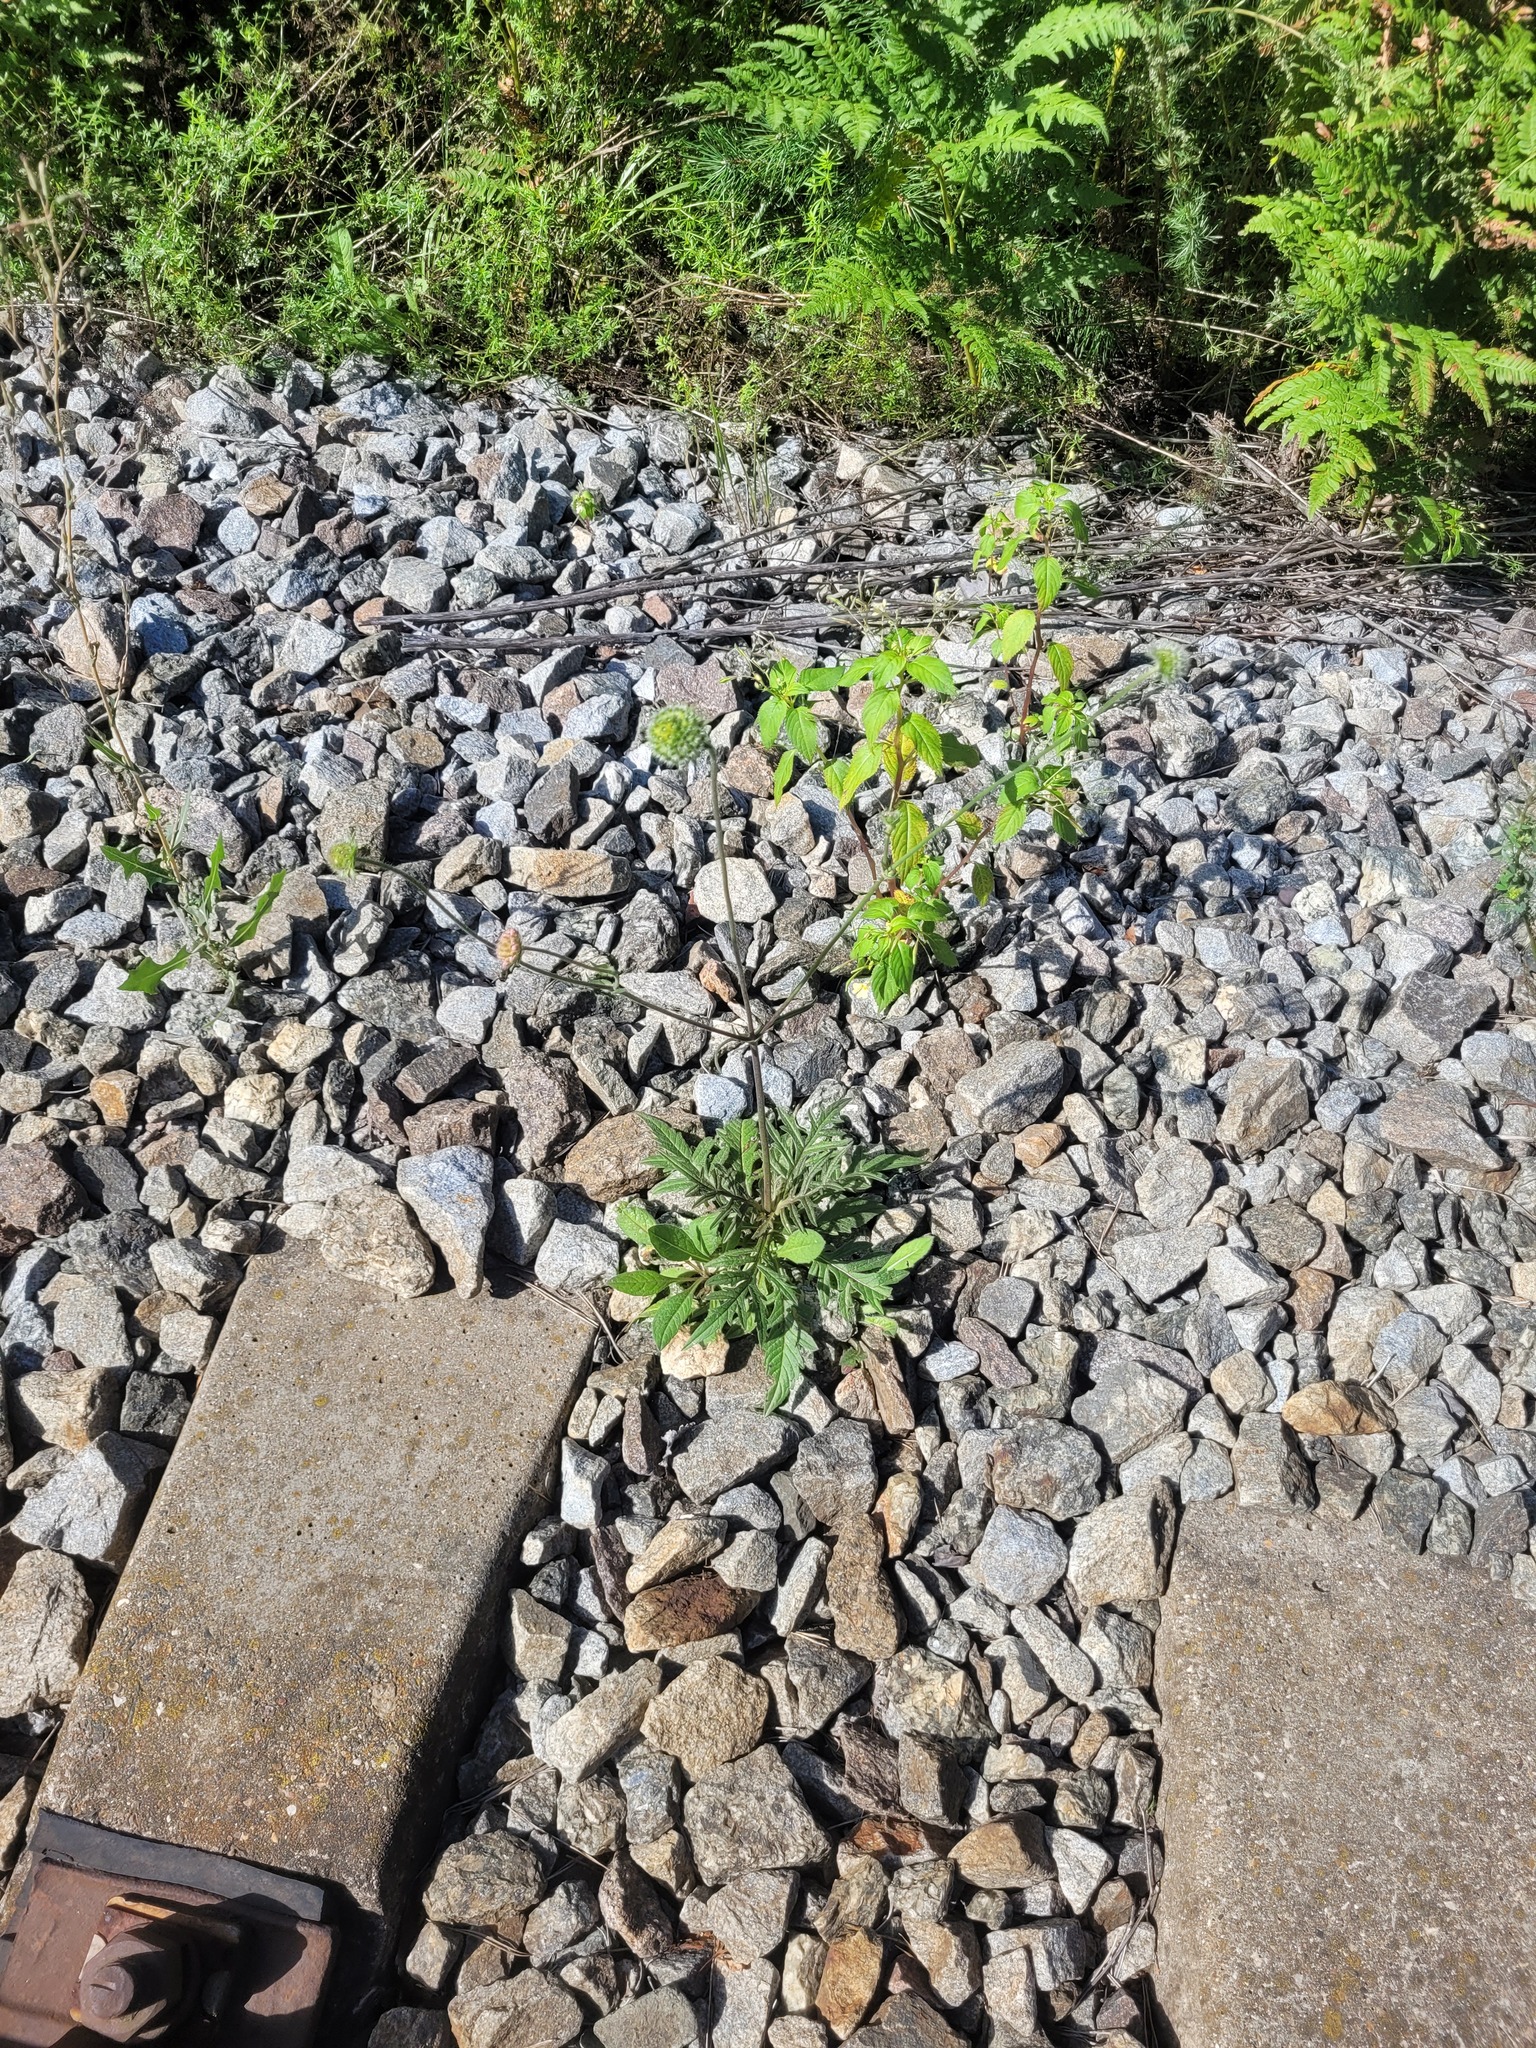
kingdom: Plantae
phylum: Tracheophyta
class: Magnoliopsida
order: Dipsacales
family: Caprifoliaceae
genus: Knautia
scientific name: Knautia arvensis
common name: Field scabiosa
